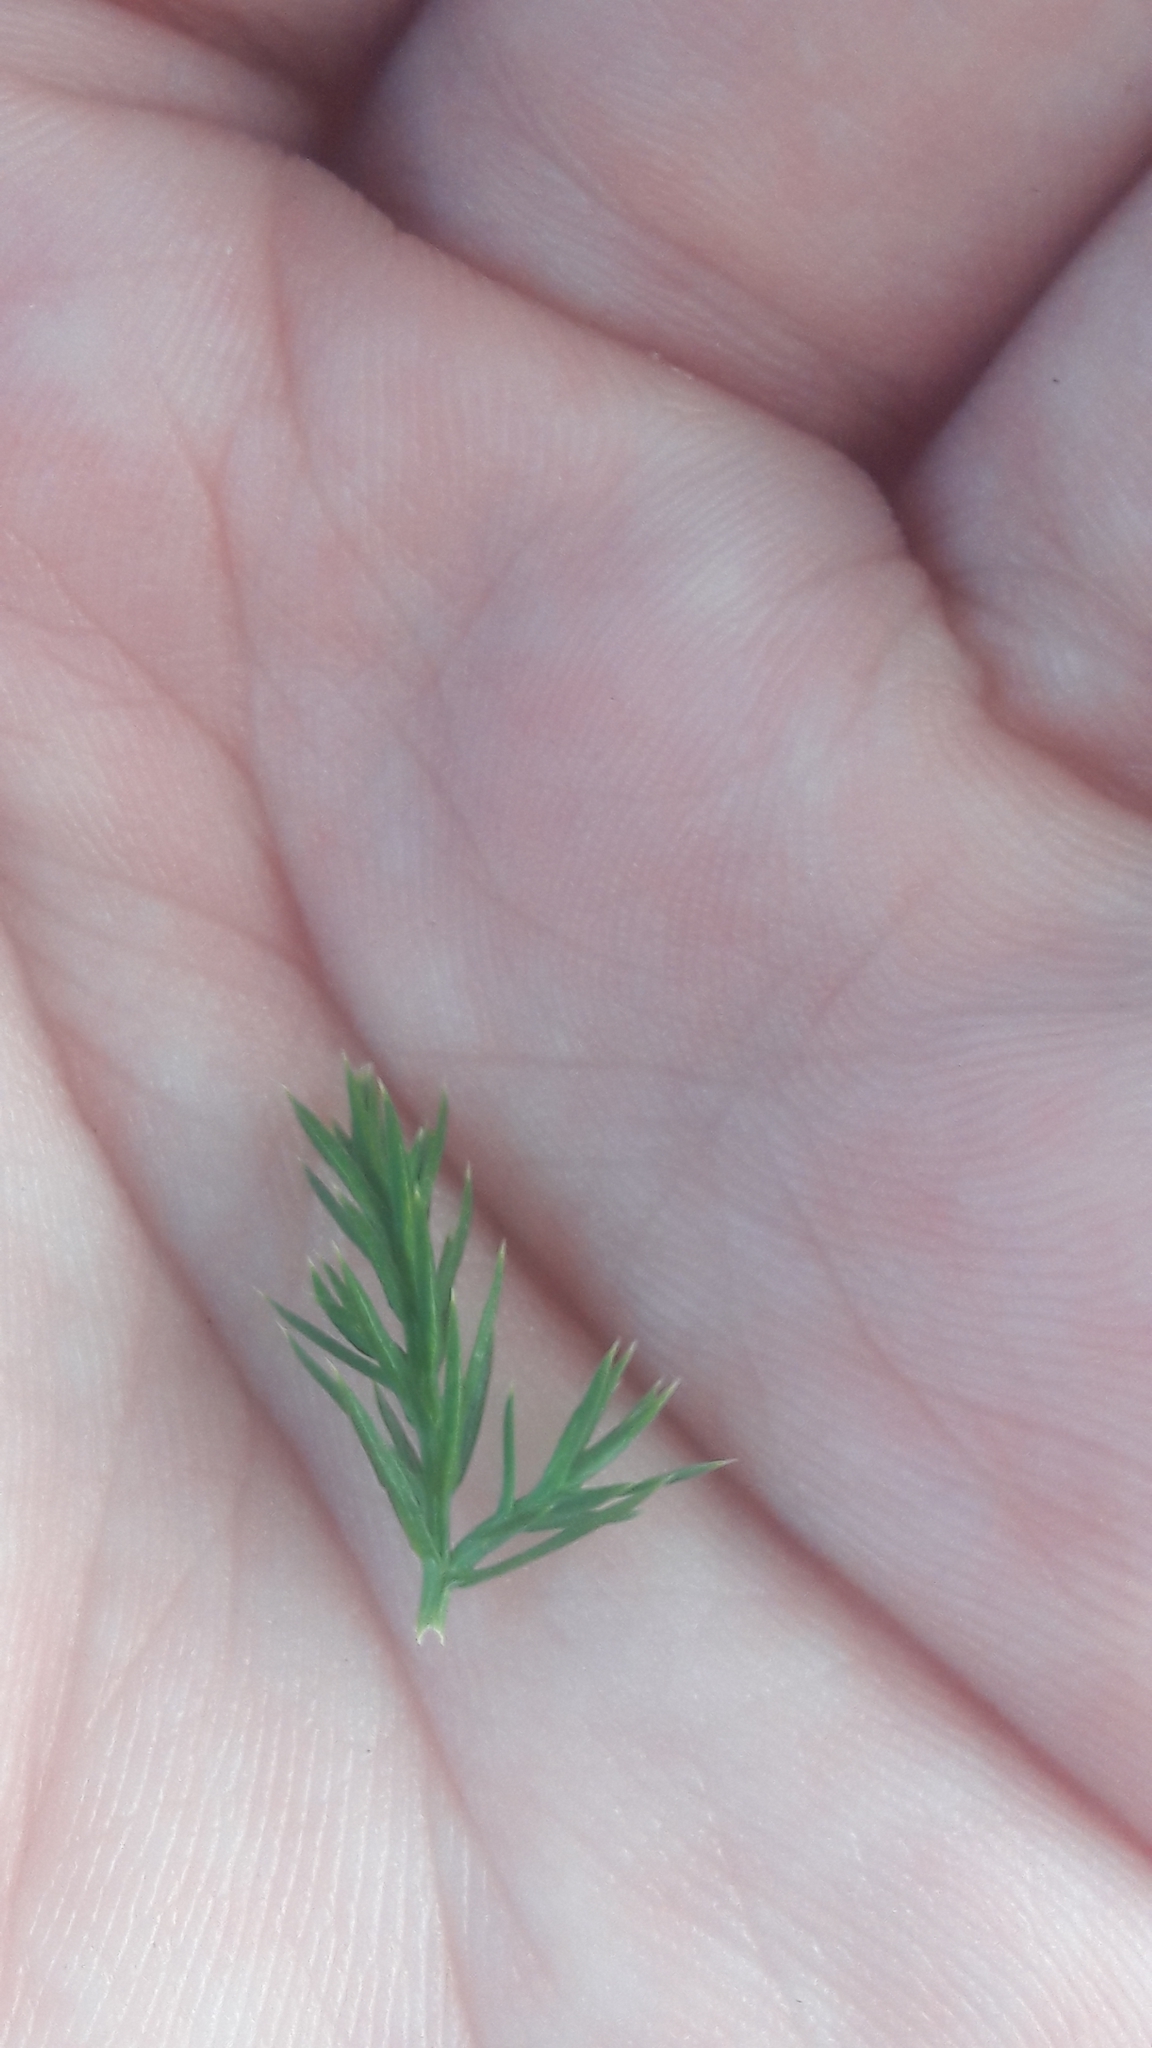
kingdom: Plantae
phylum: Tracheophyta
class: Pinopsida
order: Pinales
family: Cupressaceae
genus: Juniperus
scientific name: Juniperus virginiana
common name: Red juniper
